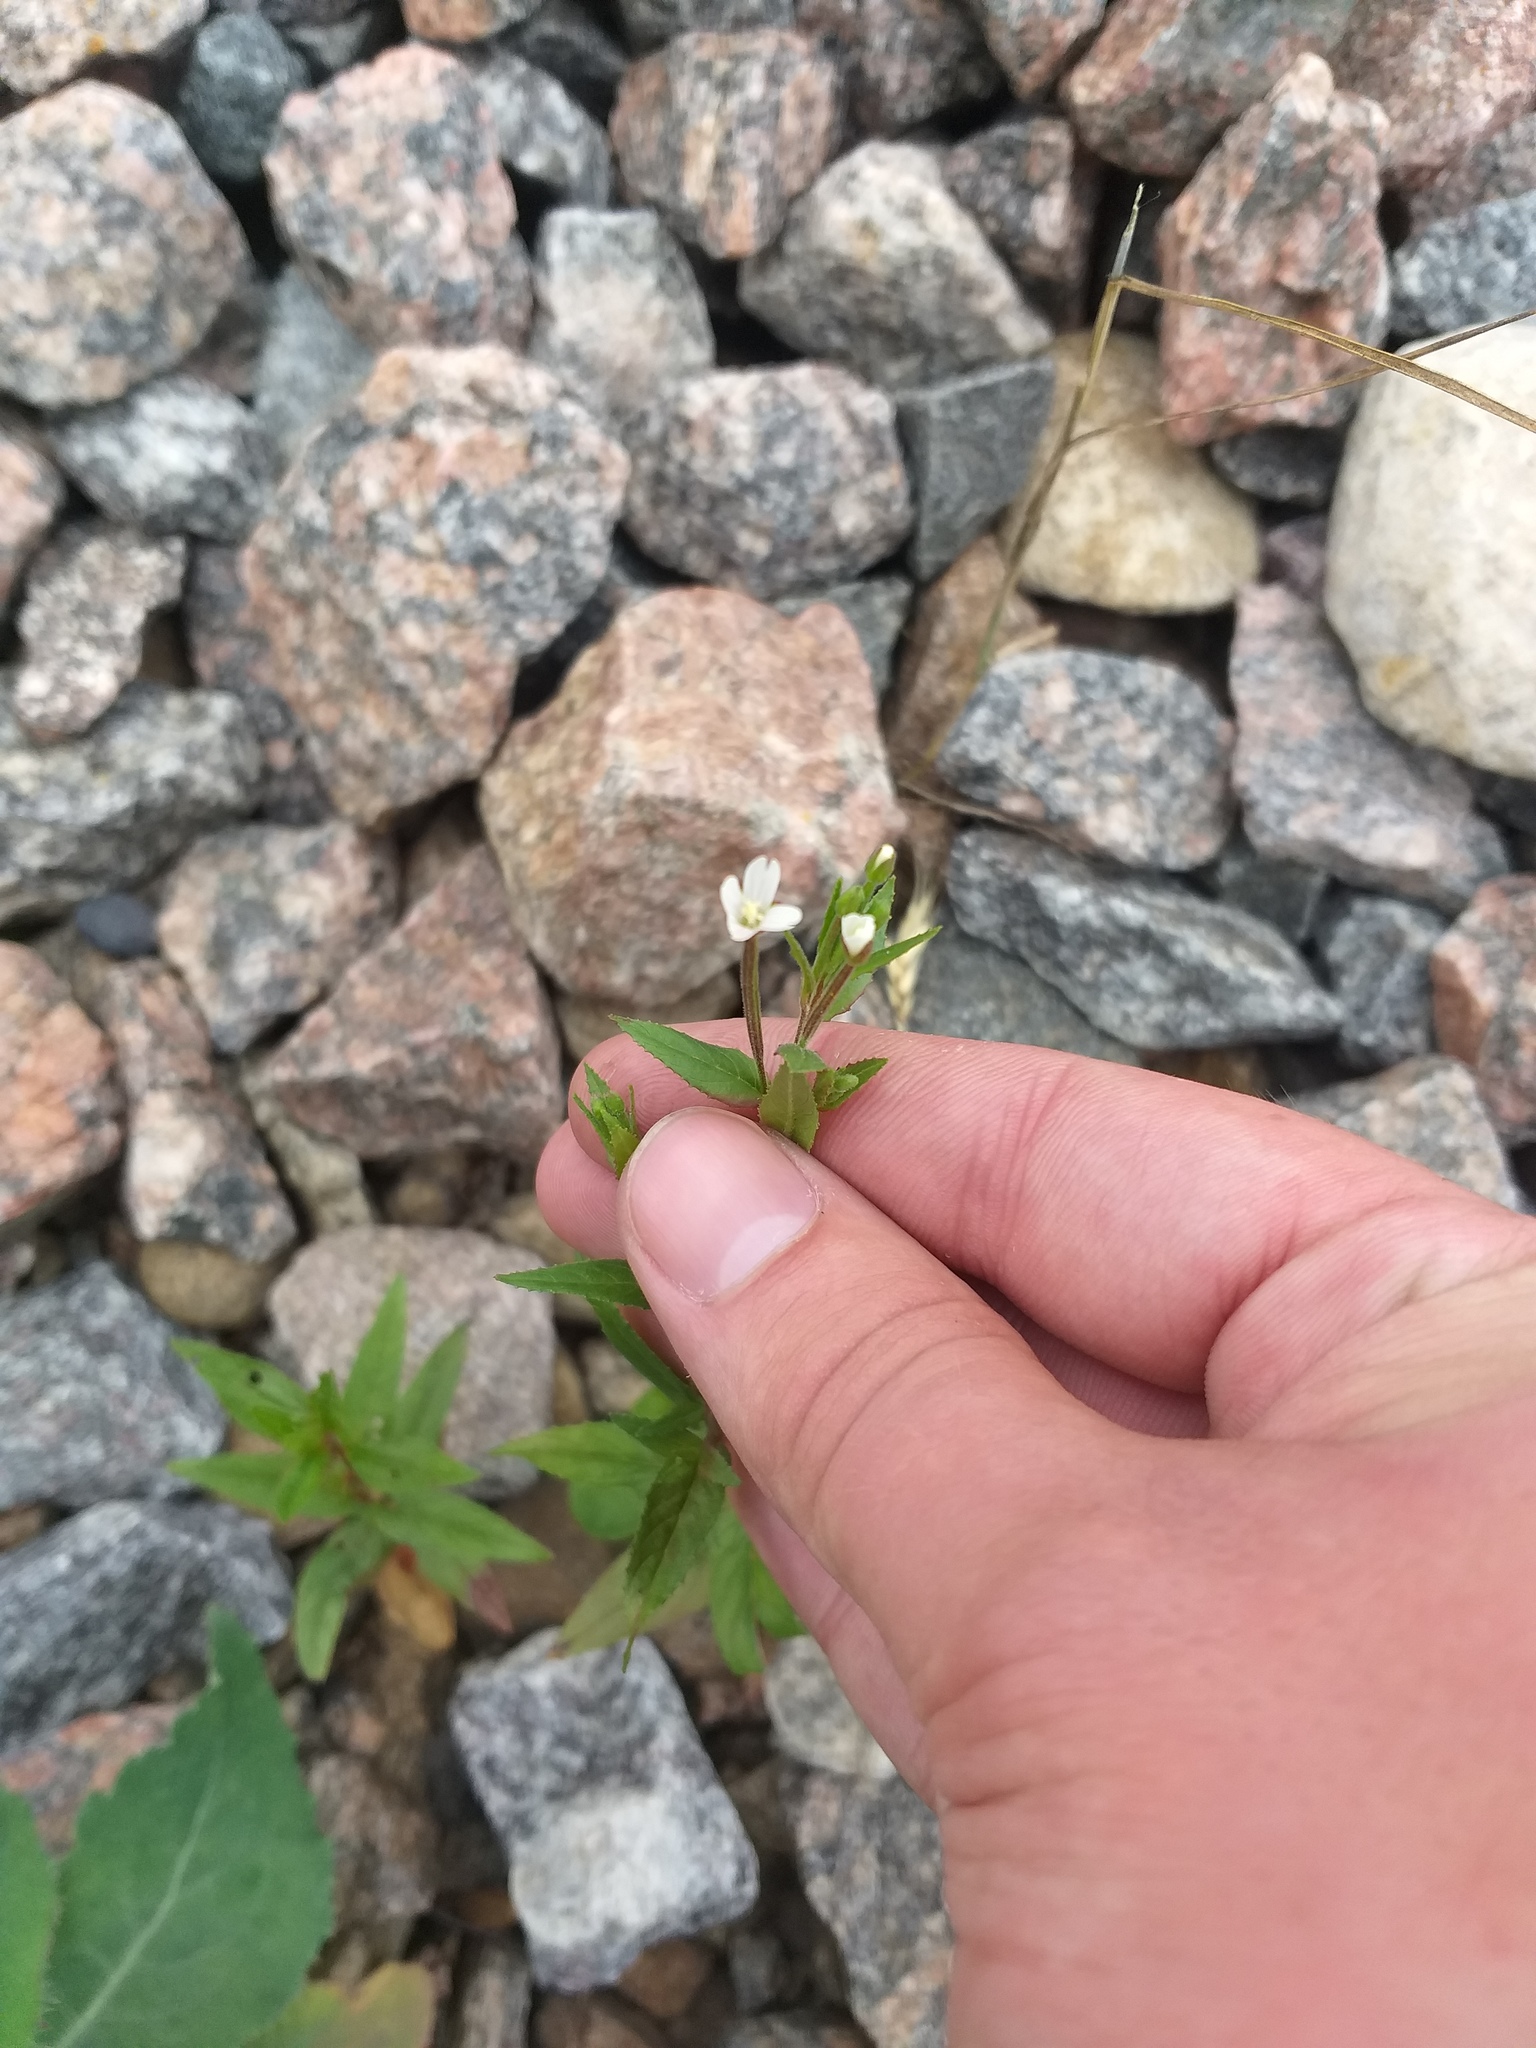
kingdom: Plantae
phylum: Tracheophyta
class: Magnoliopsida
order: Myrtales
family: Onagraceae
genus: Epilobium
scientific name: Epilobium pseudorubescens
